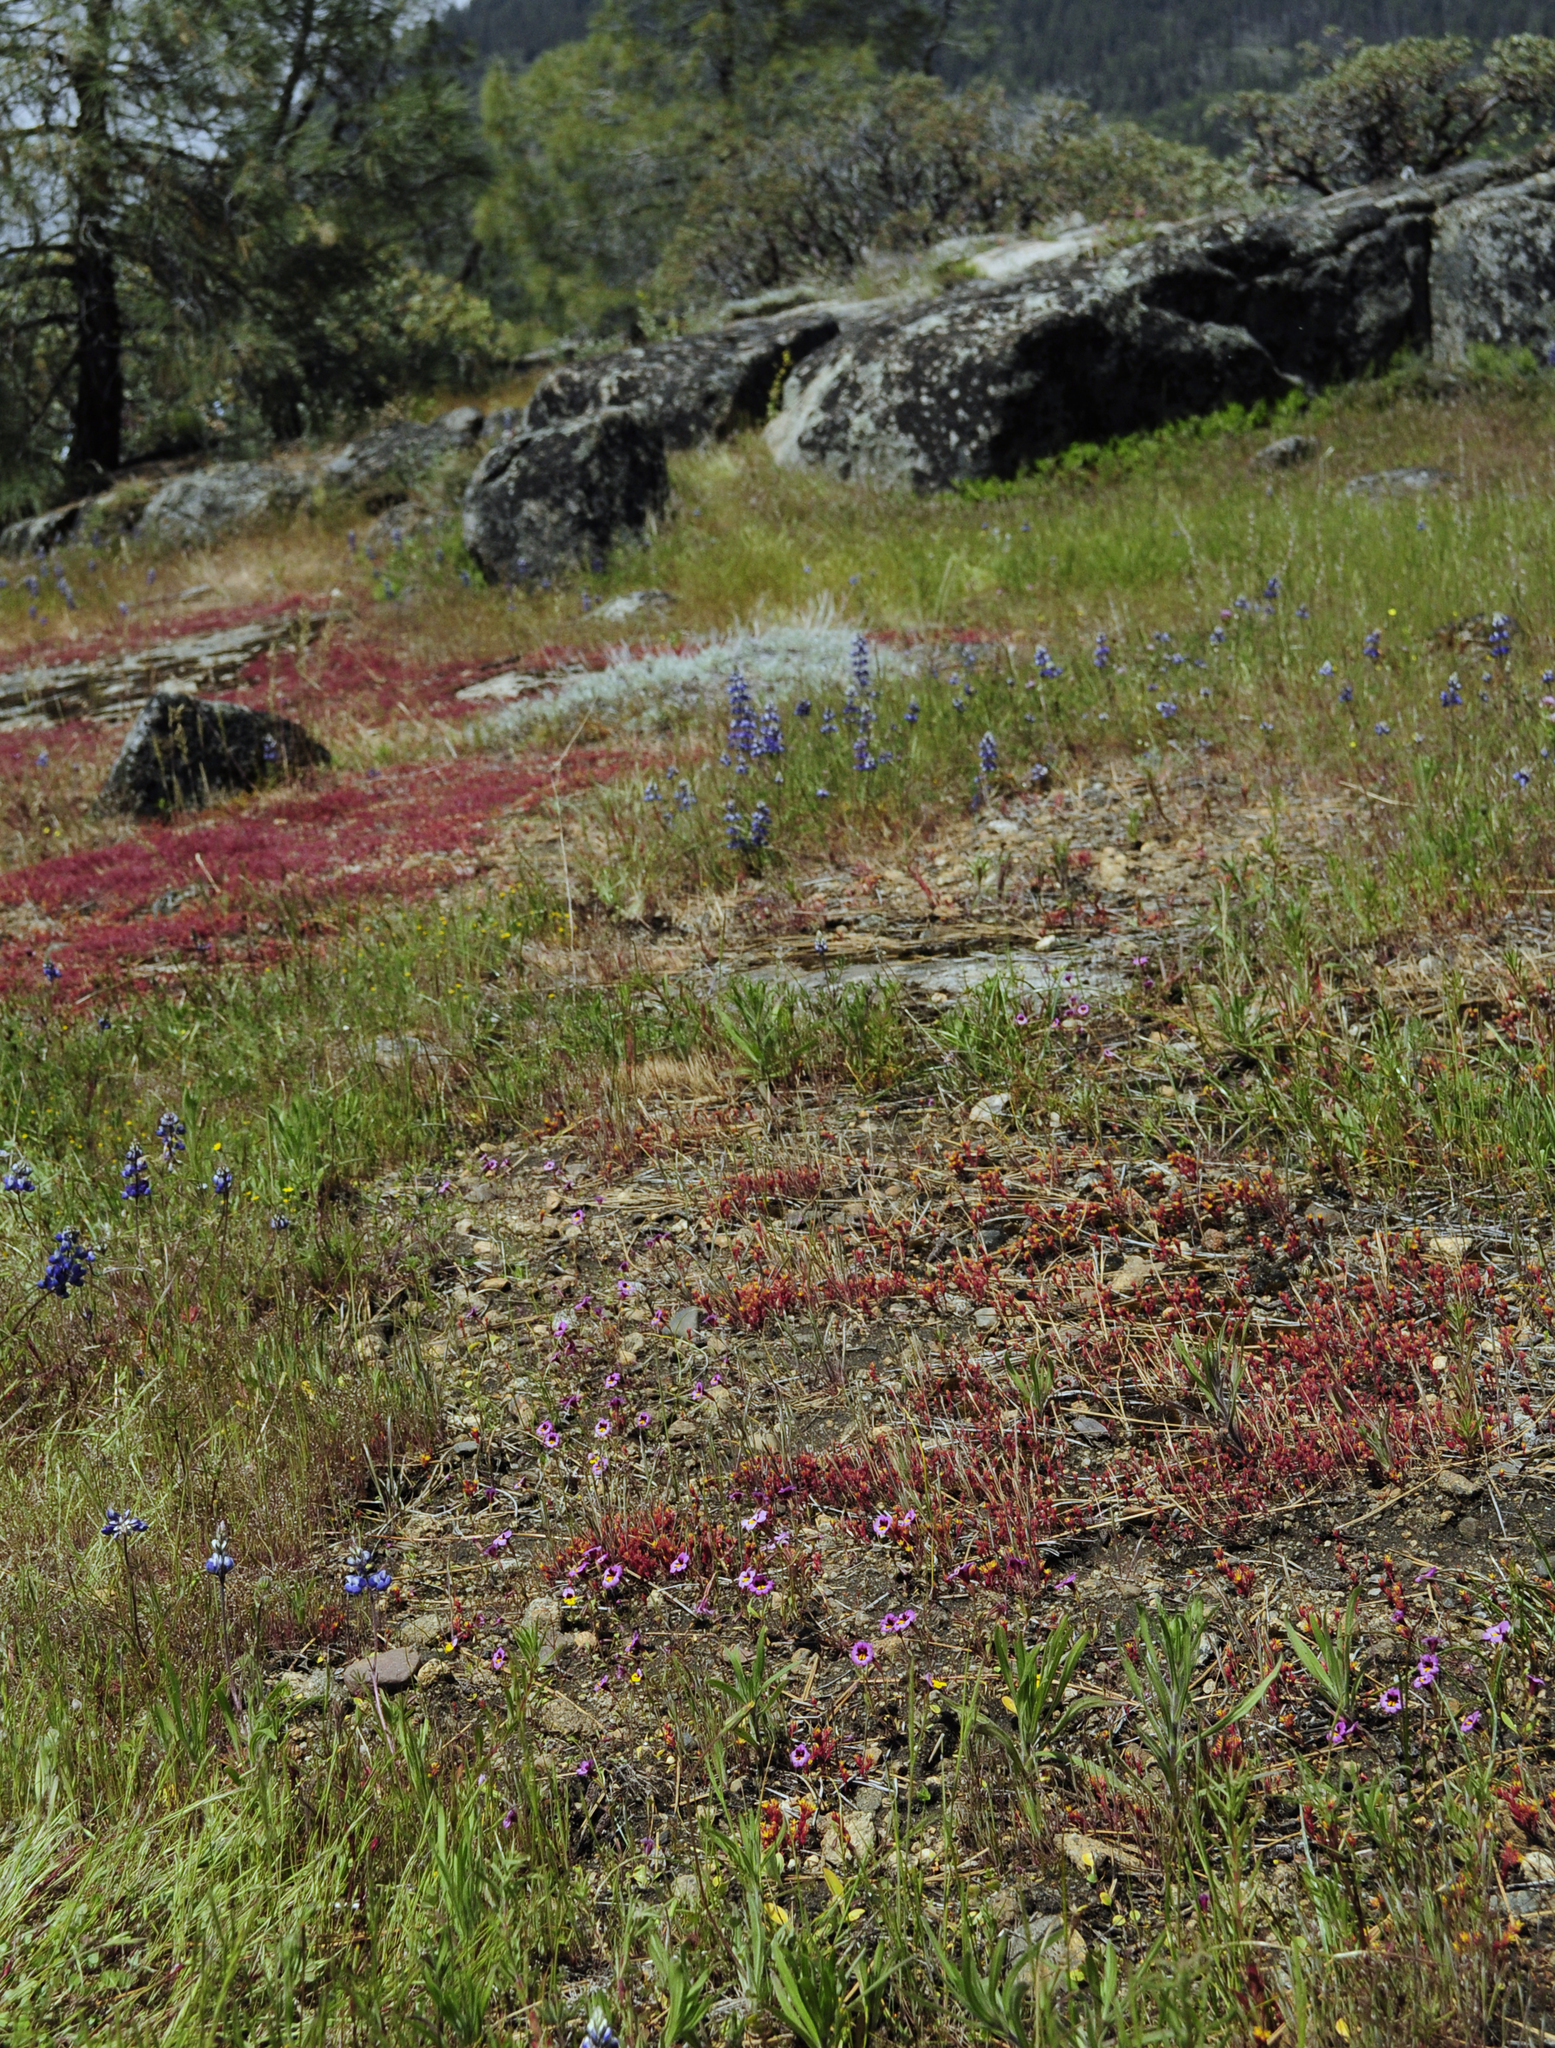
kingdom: Plantae
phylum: Tracheophyta
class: Magnoliopsida
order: Lamiales
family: Phrymaceae
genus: Erythranthe
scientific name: Erythranthe filicaulis
